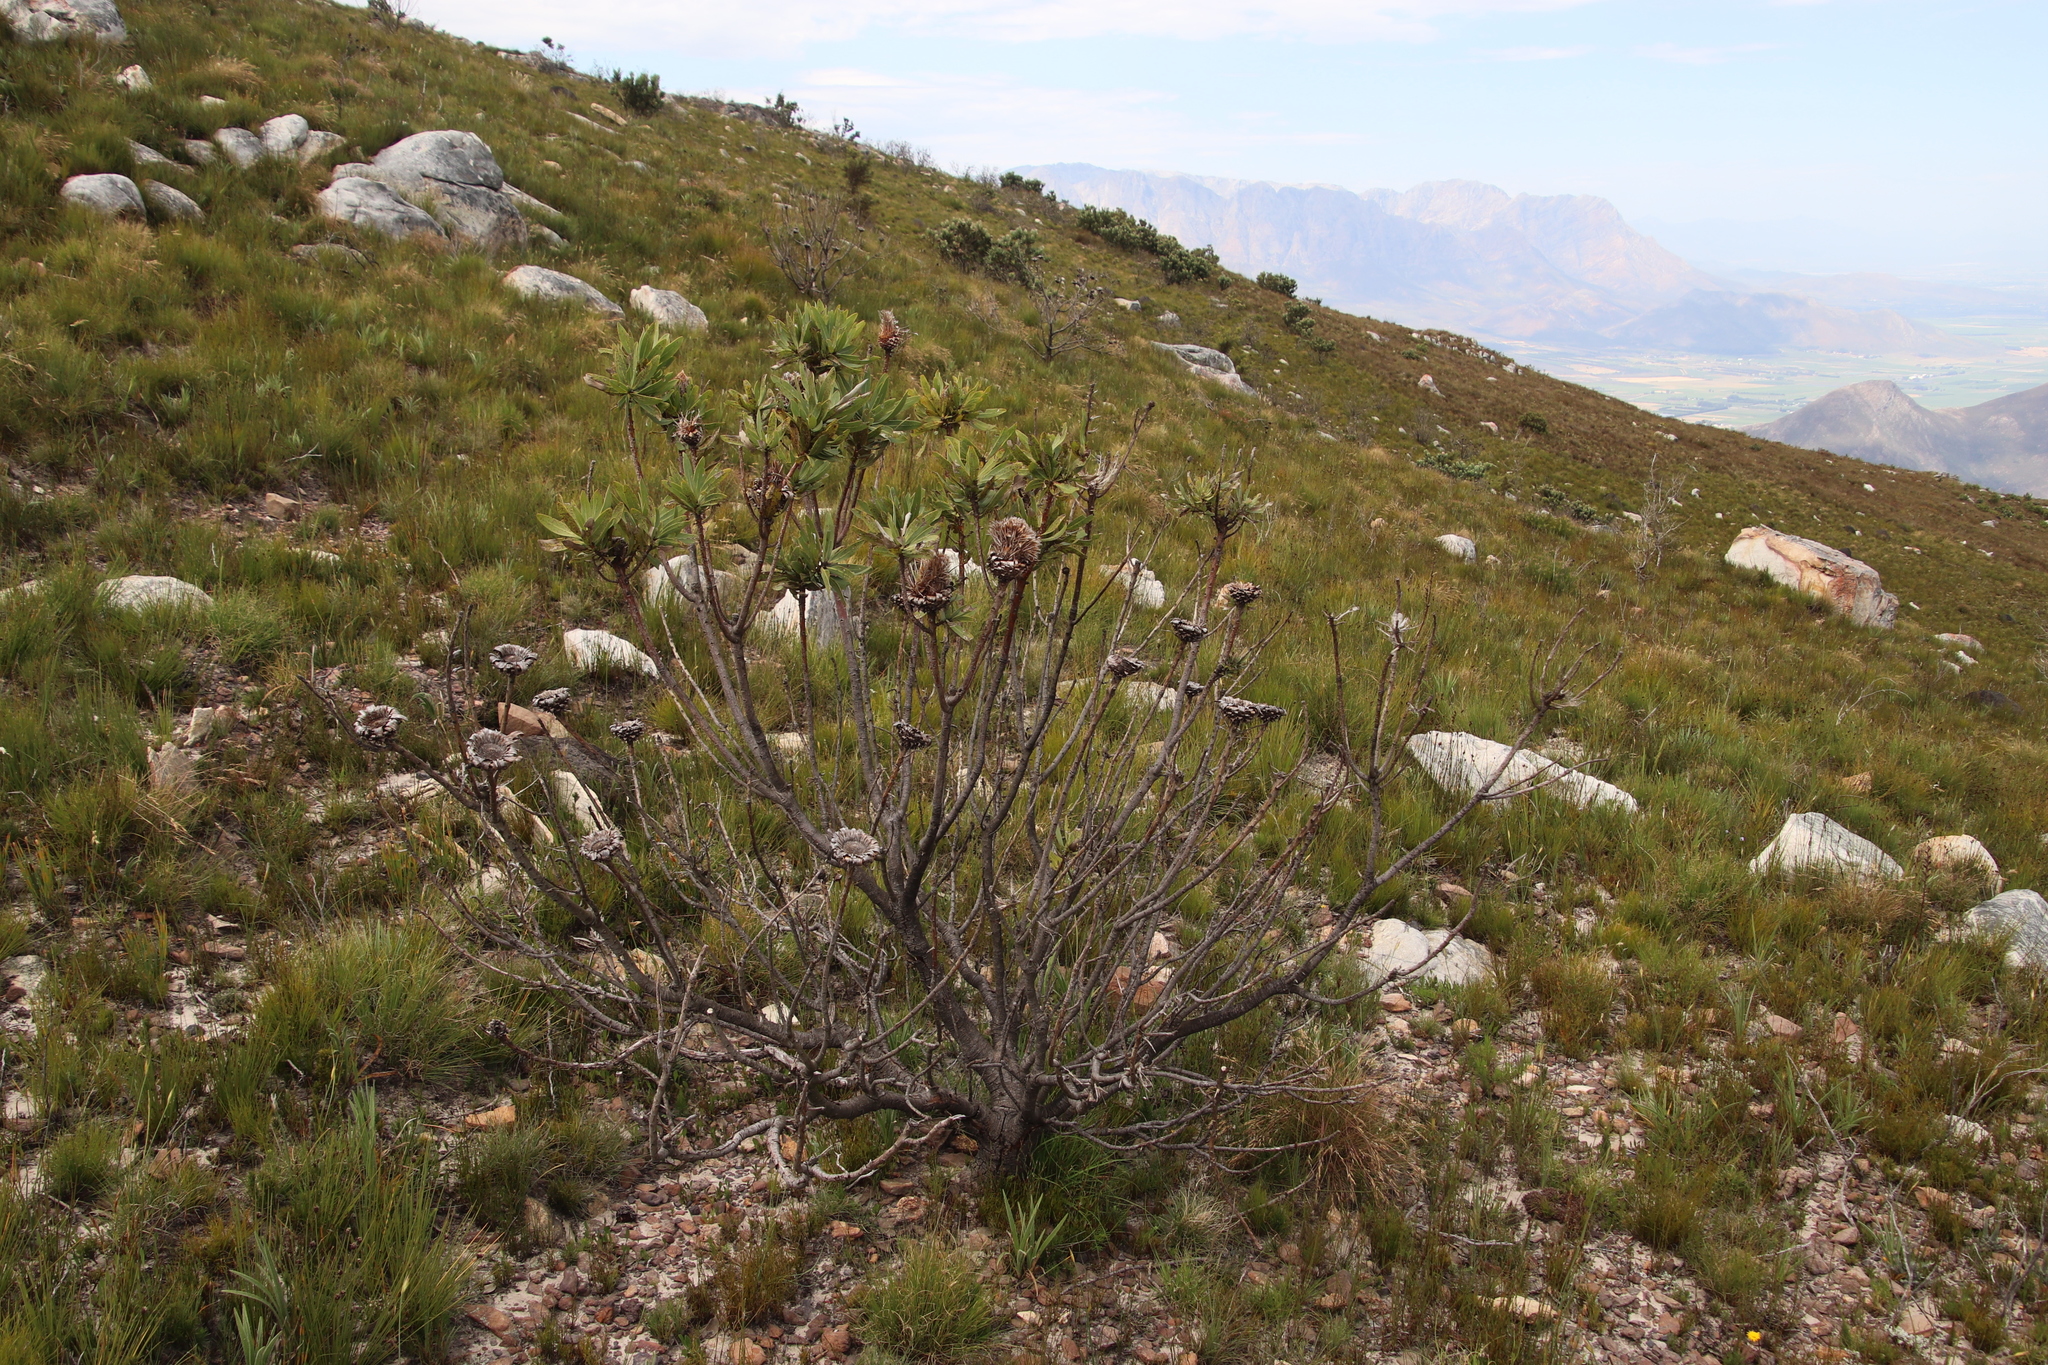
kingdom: Plantae
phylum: Tracheophyta
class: Magnoliopsida
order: Proteales
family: Proteaceae
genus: Protea
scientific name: Protea laurifolia
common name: Grey-leaf sugarbsh
